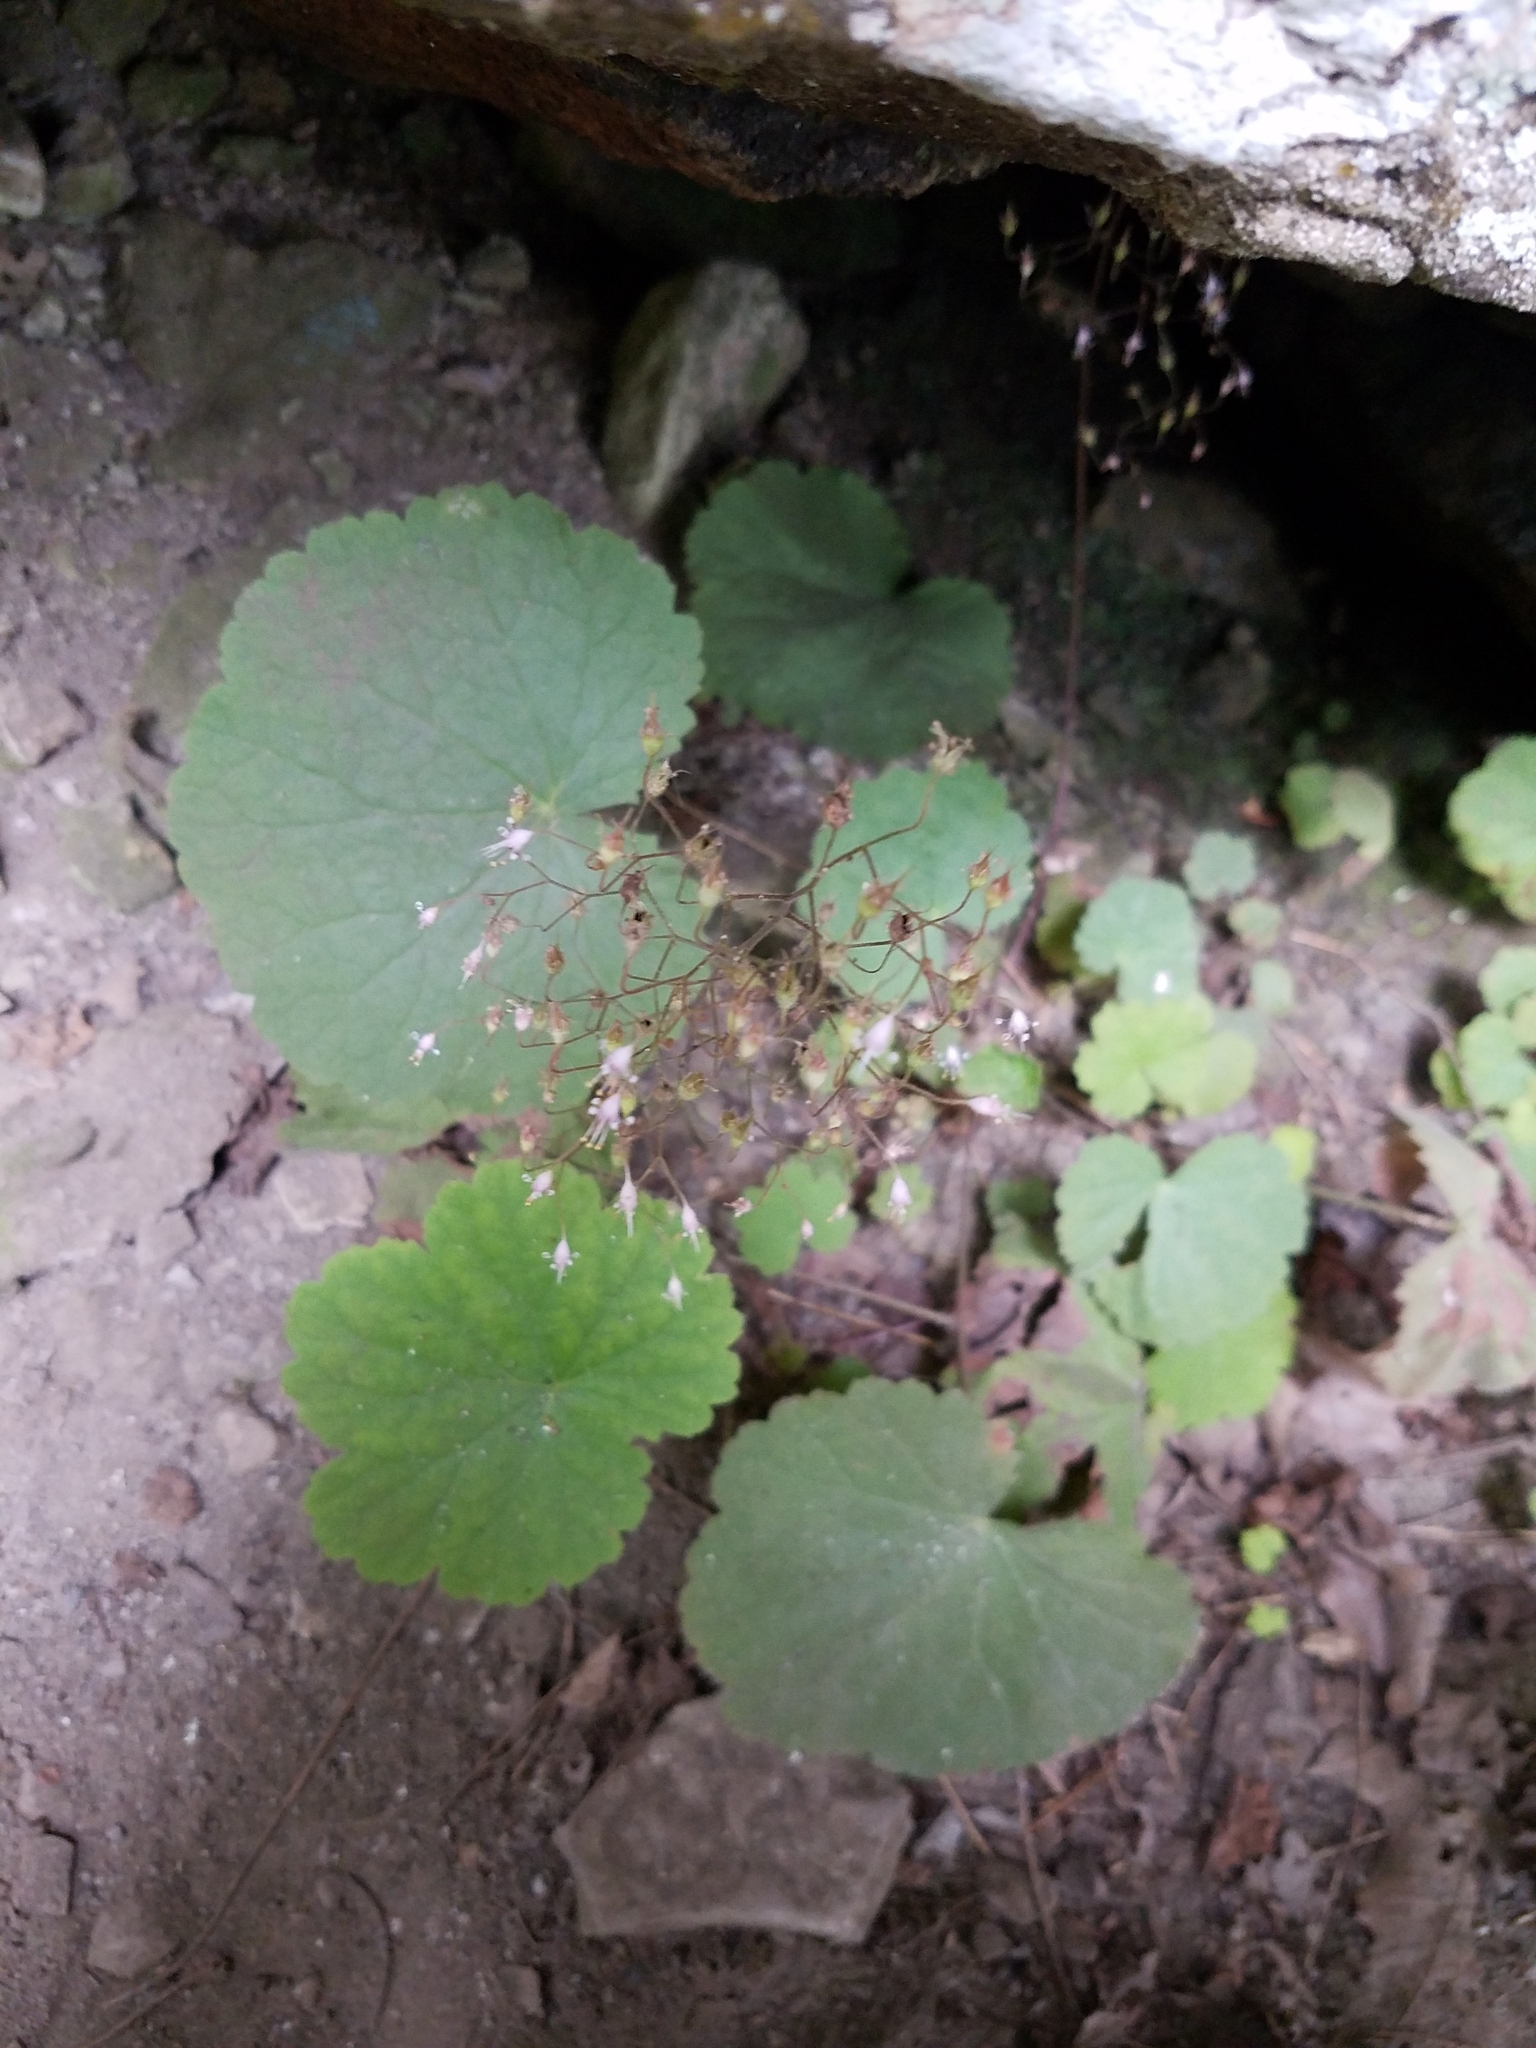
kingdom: Plantae
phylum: Tracheophyta
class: Magnoliopsida
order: Saxifragales
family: Saxifragaceae
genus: Heuchera
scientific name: Heuchera parviflora
